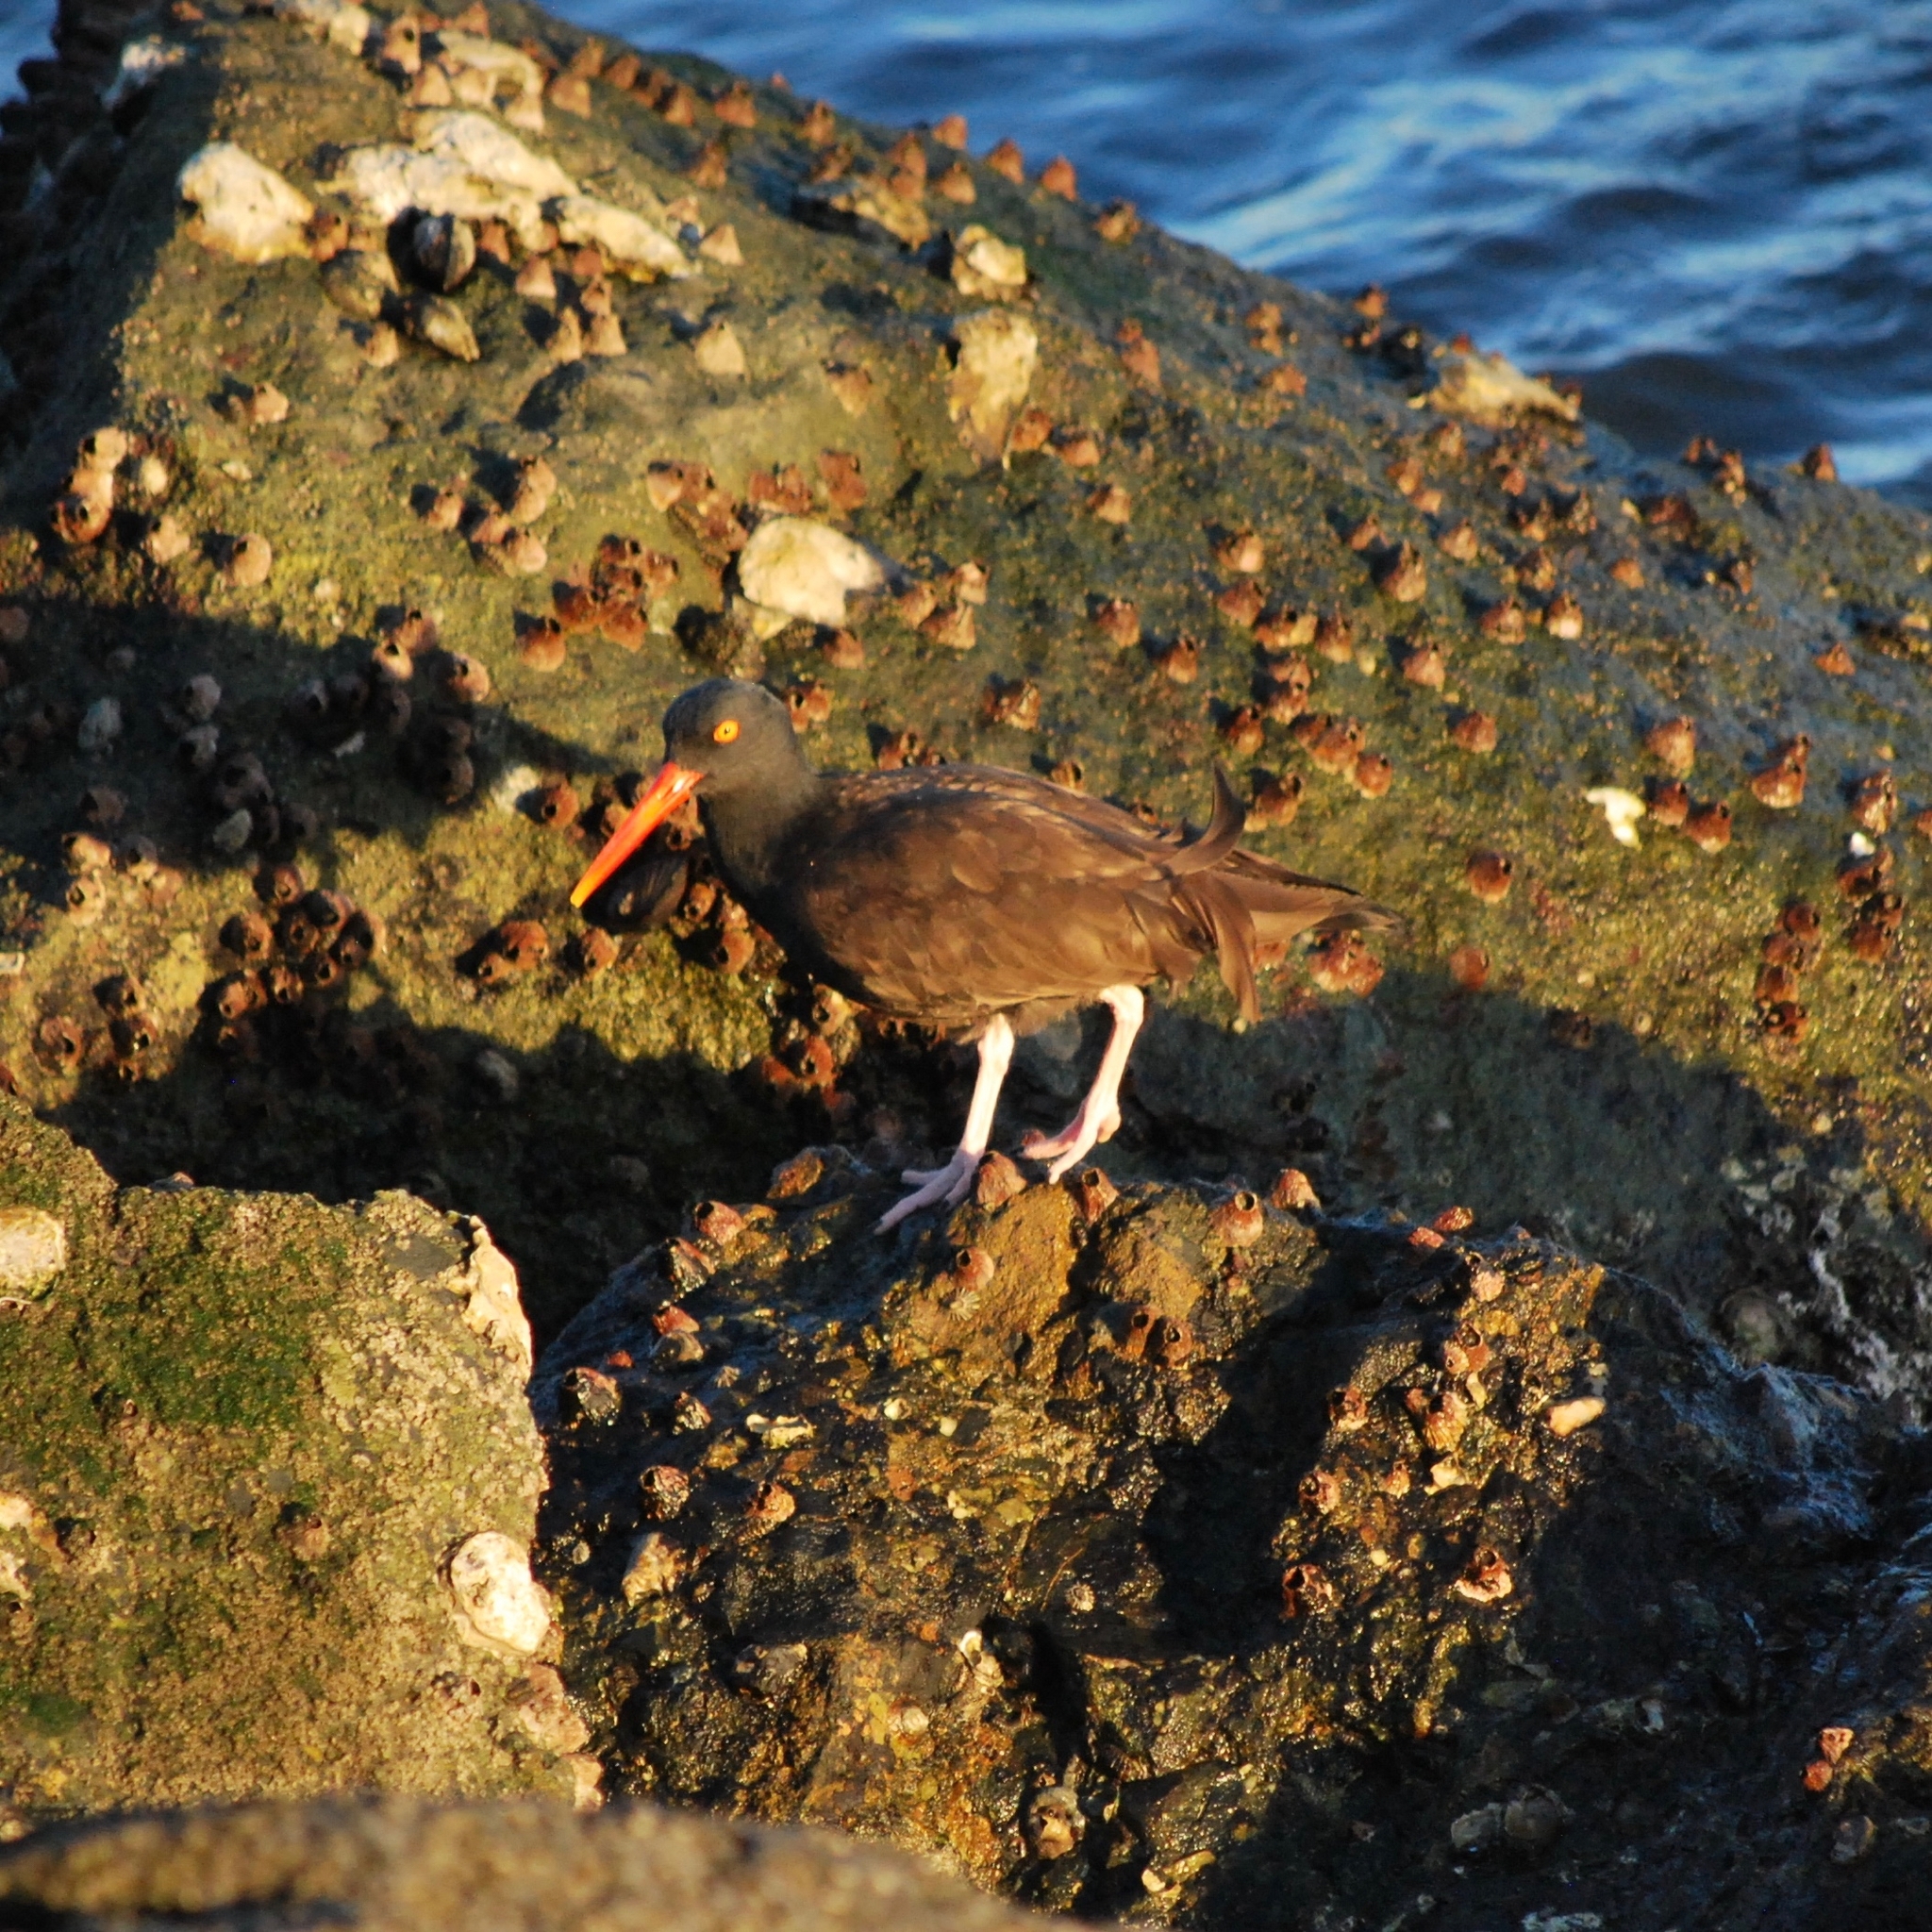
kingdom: Animalia
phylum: Chordata
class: Aves
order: Charadriiformes
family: Haematopodidae
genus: Haematopus
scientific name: Haematopus bachmani
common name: Black oystercatcher
